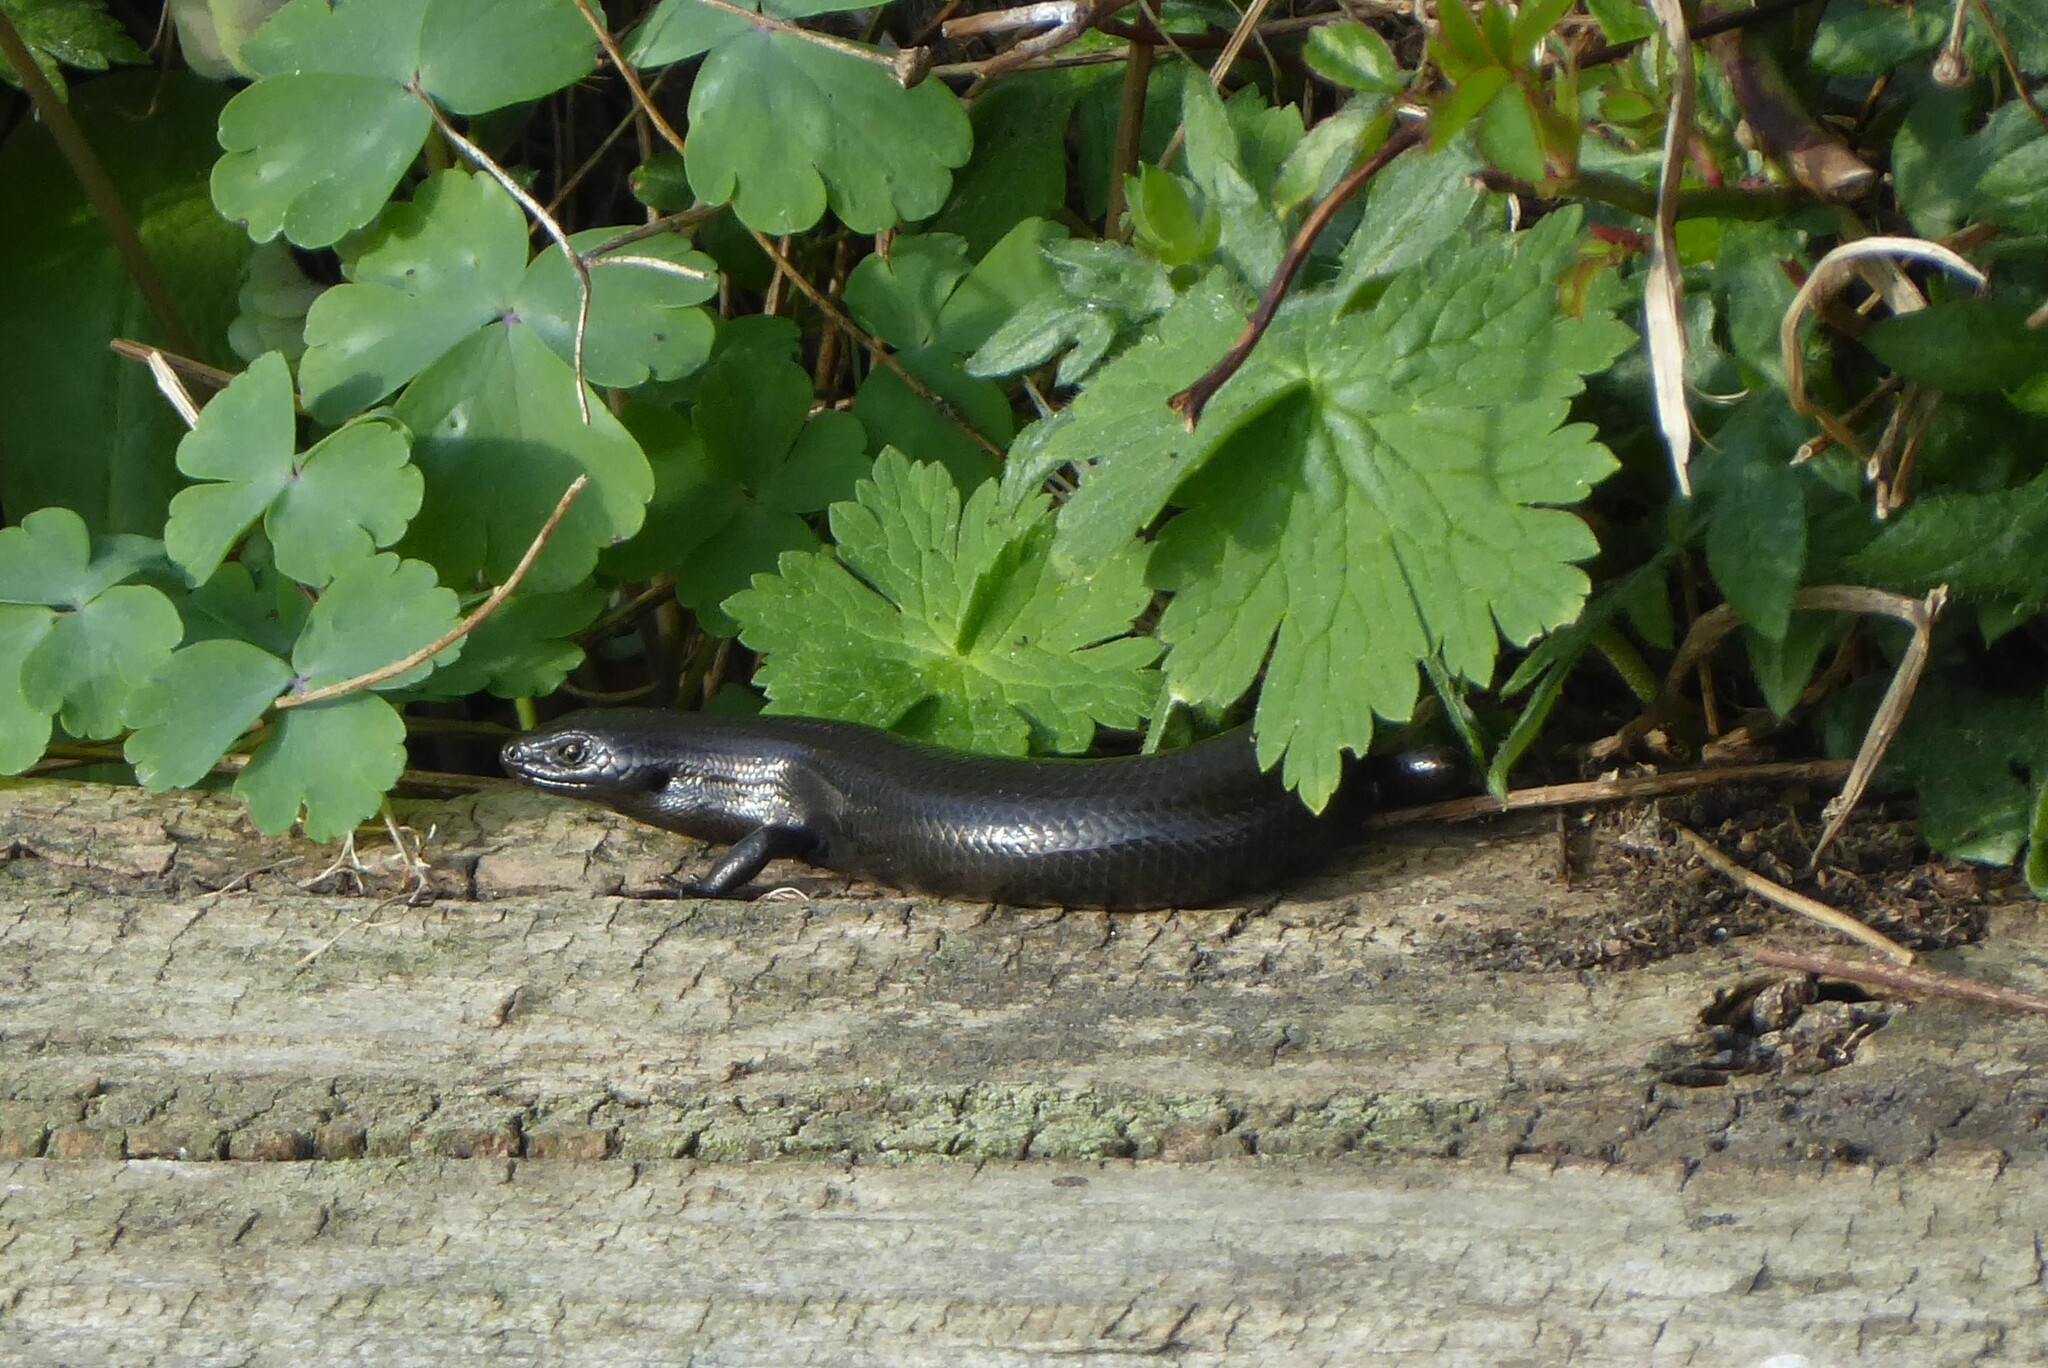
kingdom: Animalia
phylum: Chordata
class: Squamata
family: Scincidae
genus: Oligosoma
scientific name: Oligosoma polychroma
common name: Common new zealand skink
